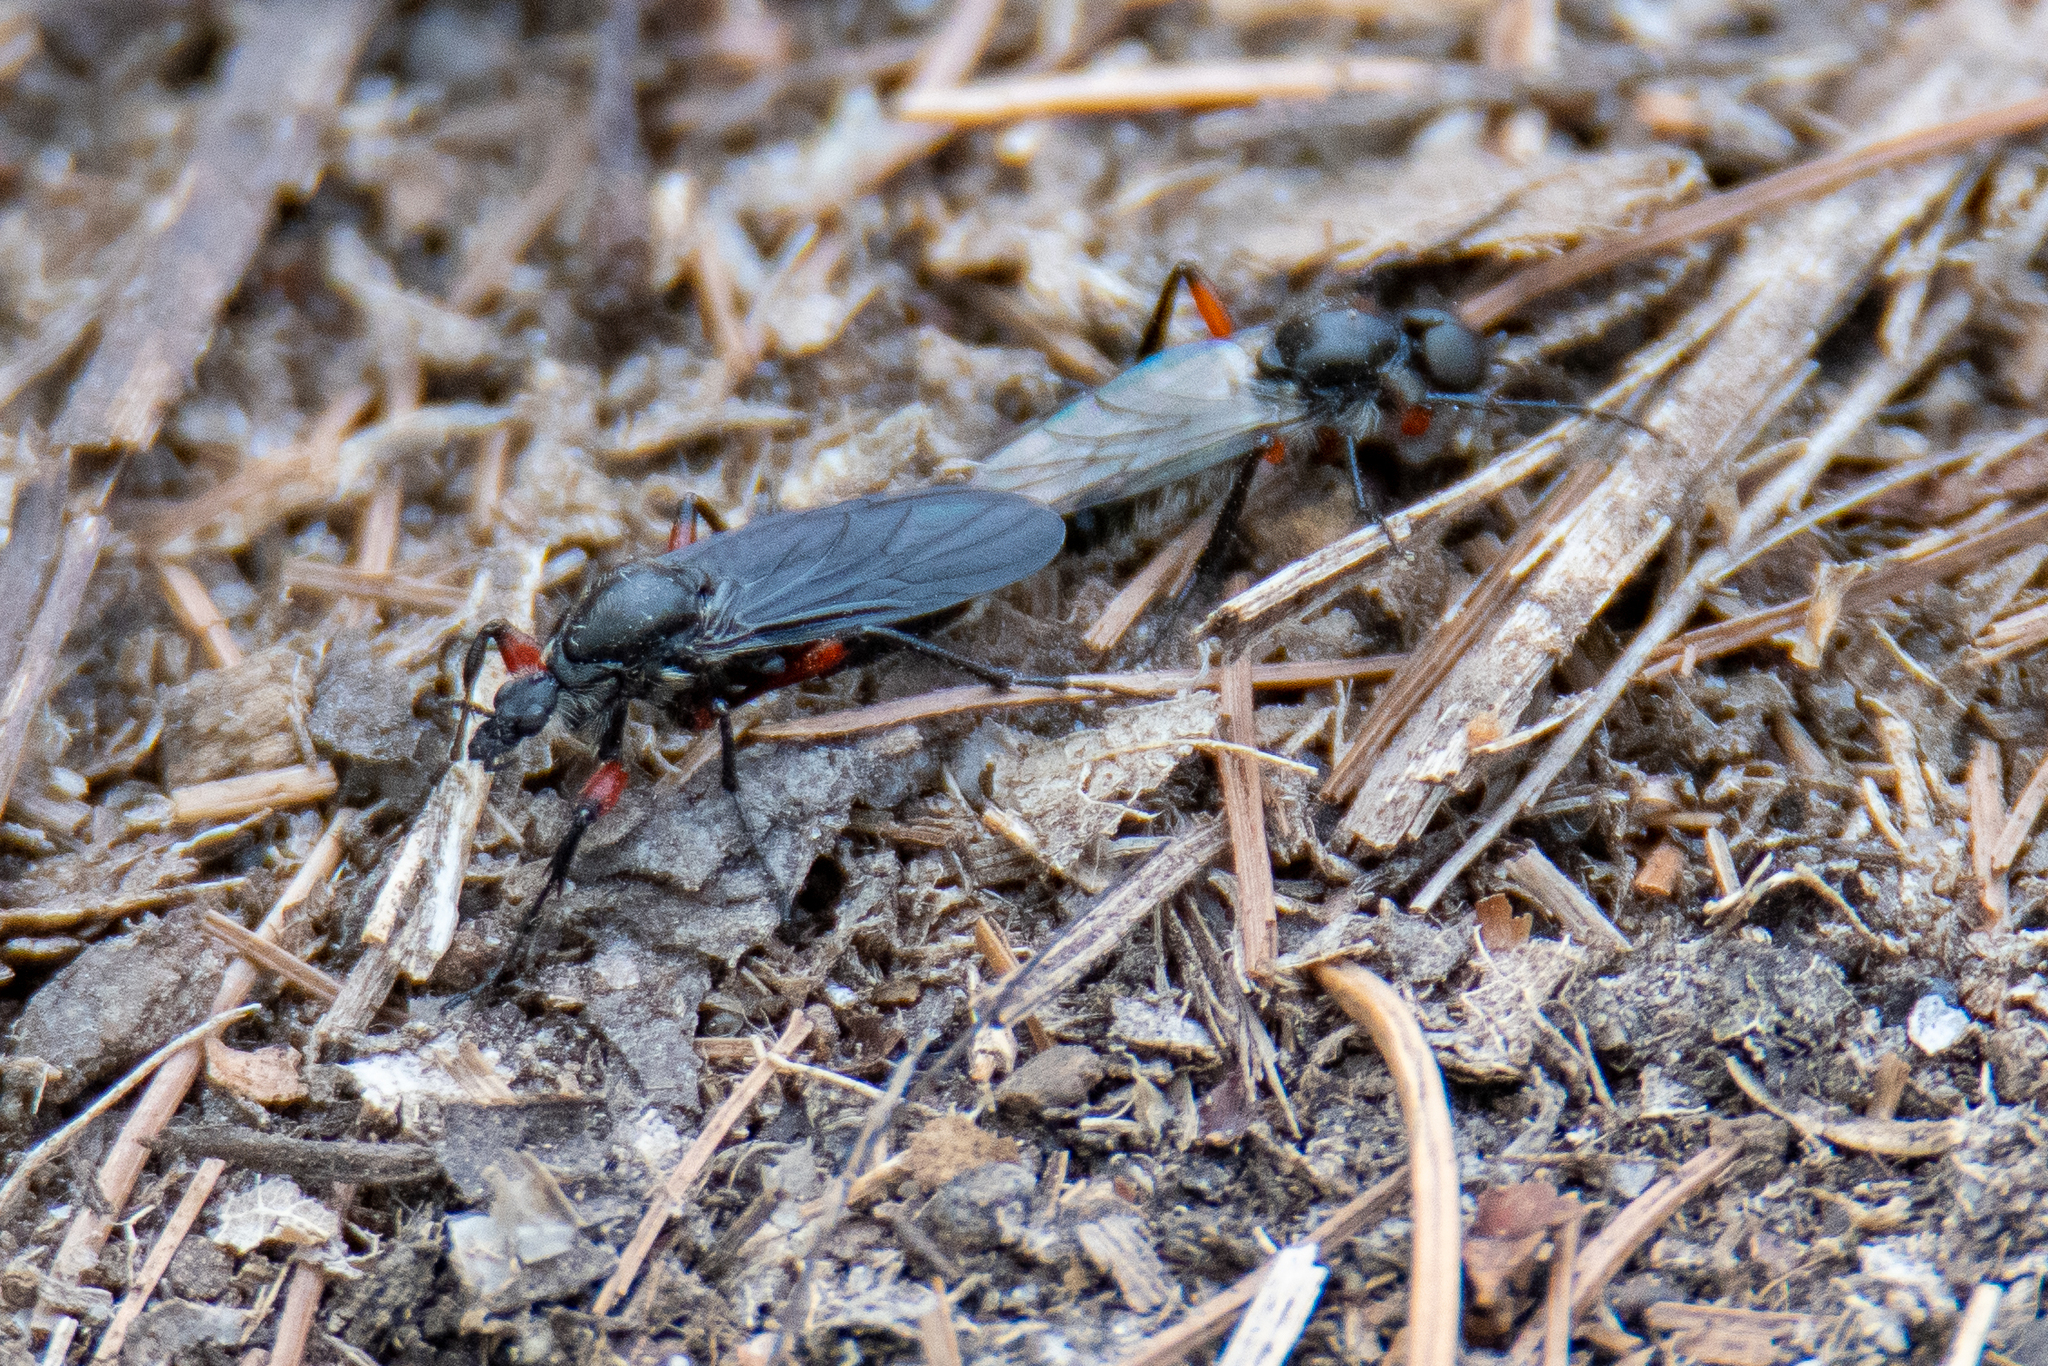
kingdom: Animalia
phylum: Arthropoda
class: Insecta
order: Diptera
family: Bibionidae
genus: Bibio
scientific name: Bibio femoratus
